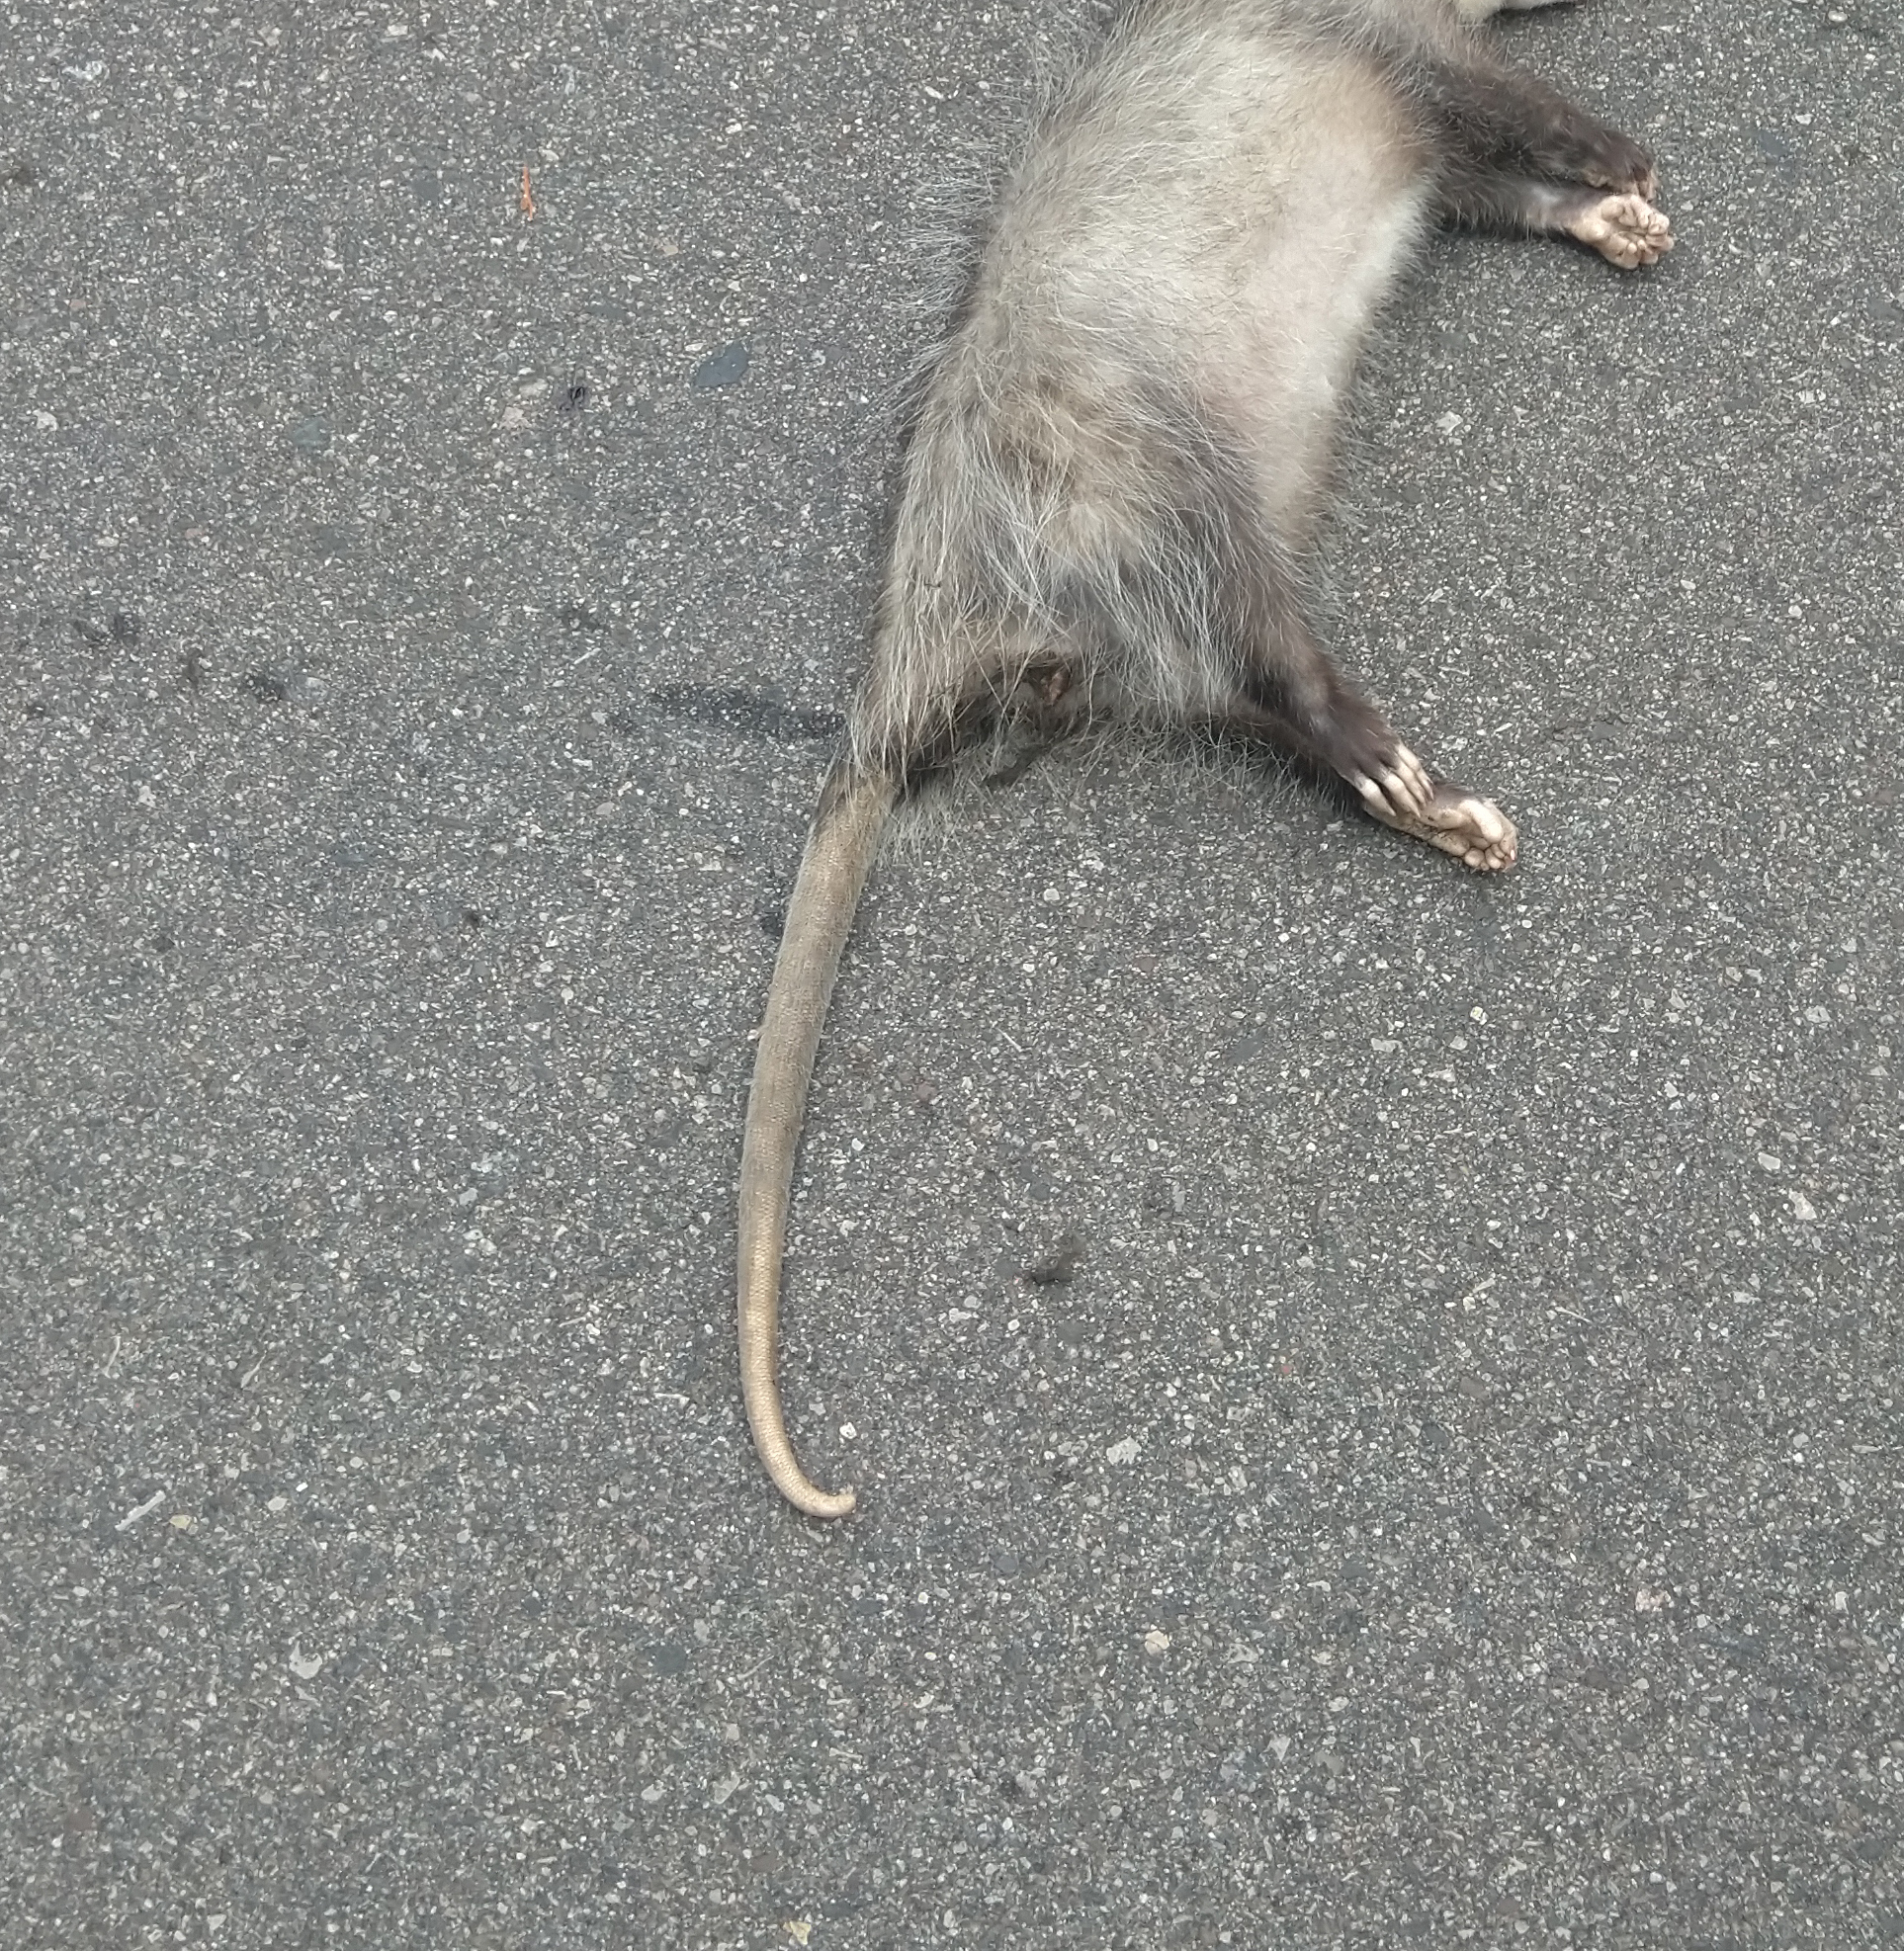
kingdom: Animalia
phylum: Chordata
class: Mammalia
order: Didelphimorphia
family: Didelphidae
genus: Didelphis
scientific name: Didelphis virginiana
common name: Virginia opossum
